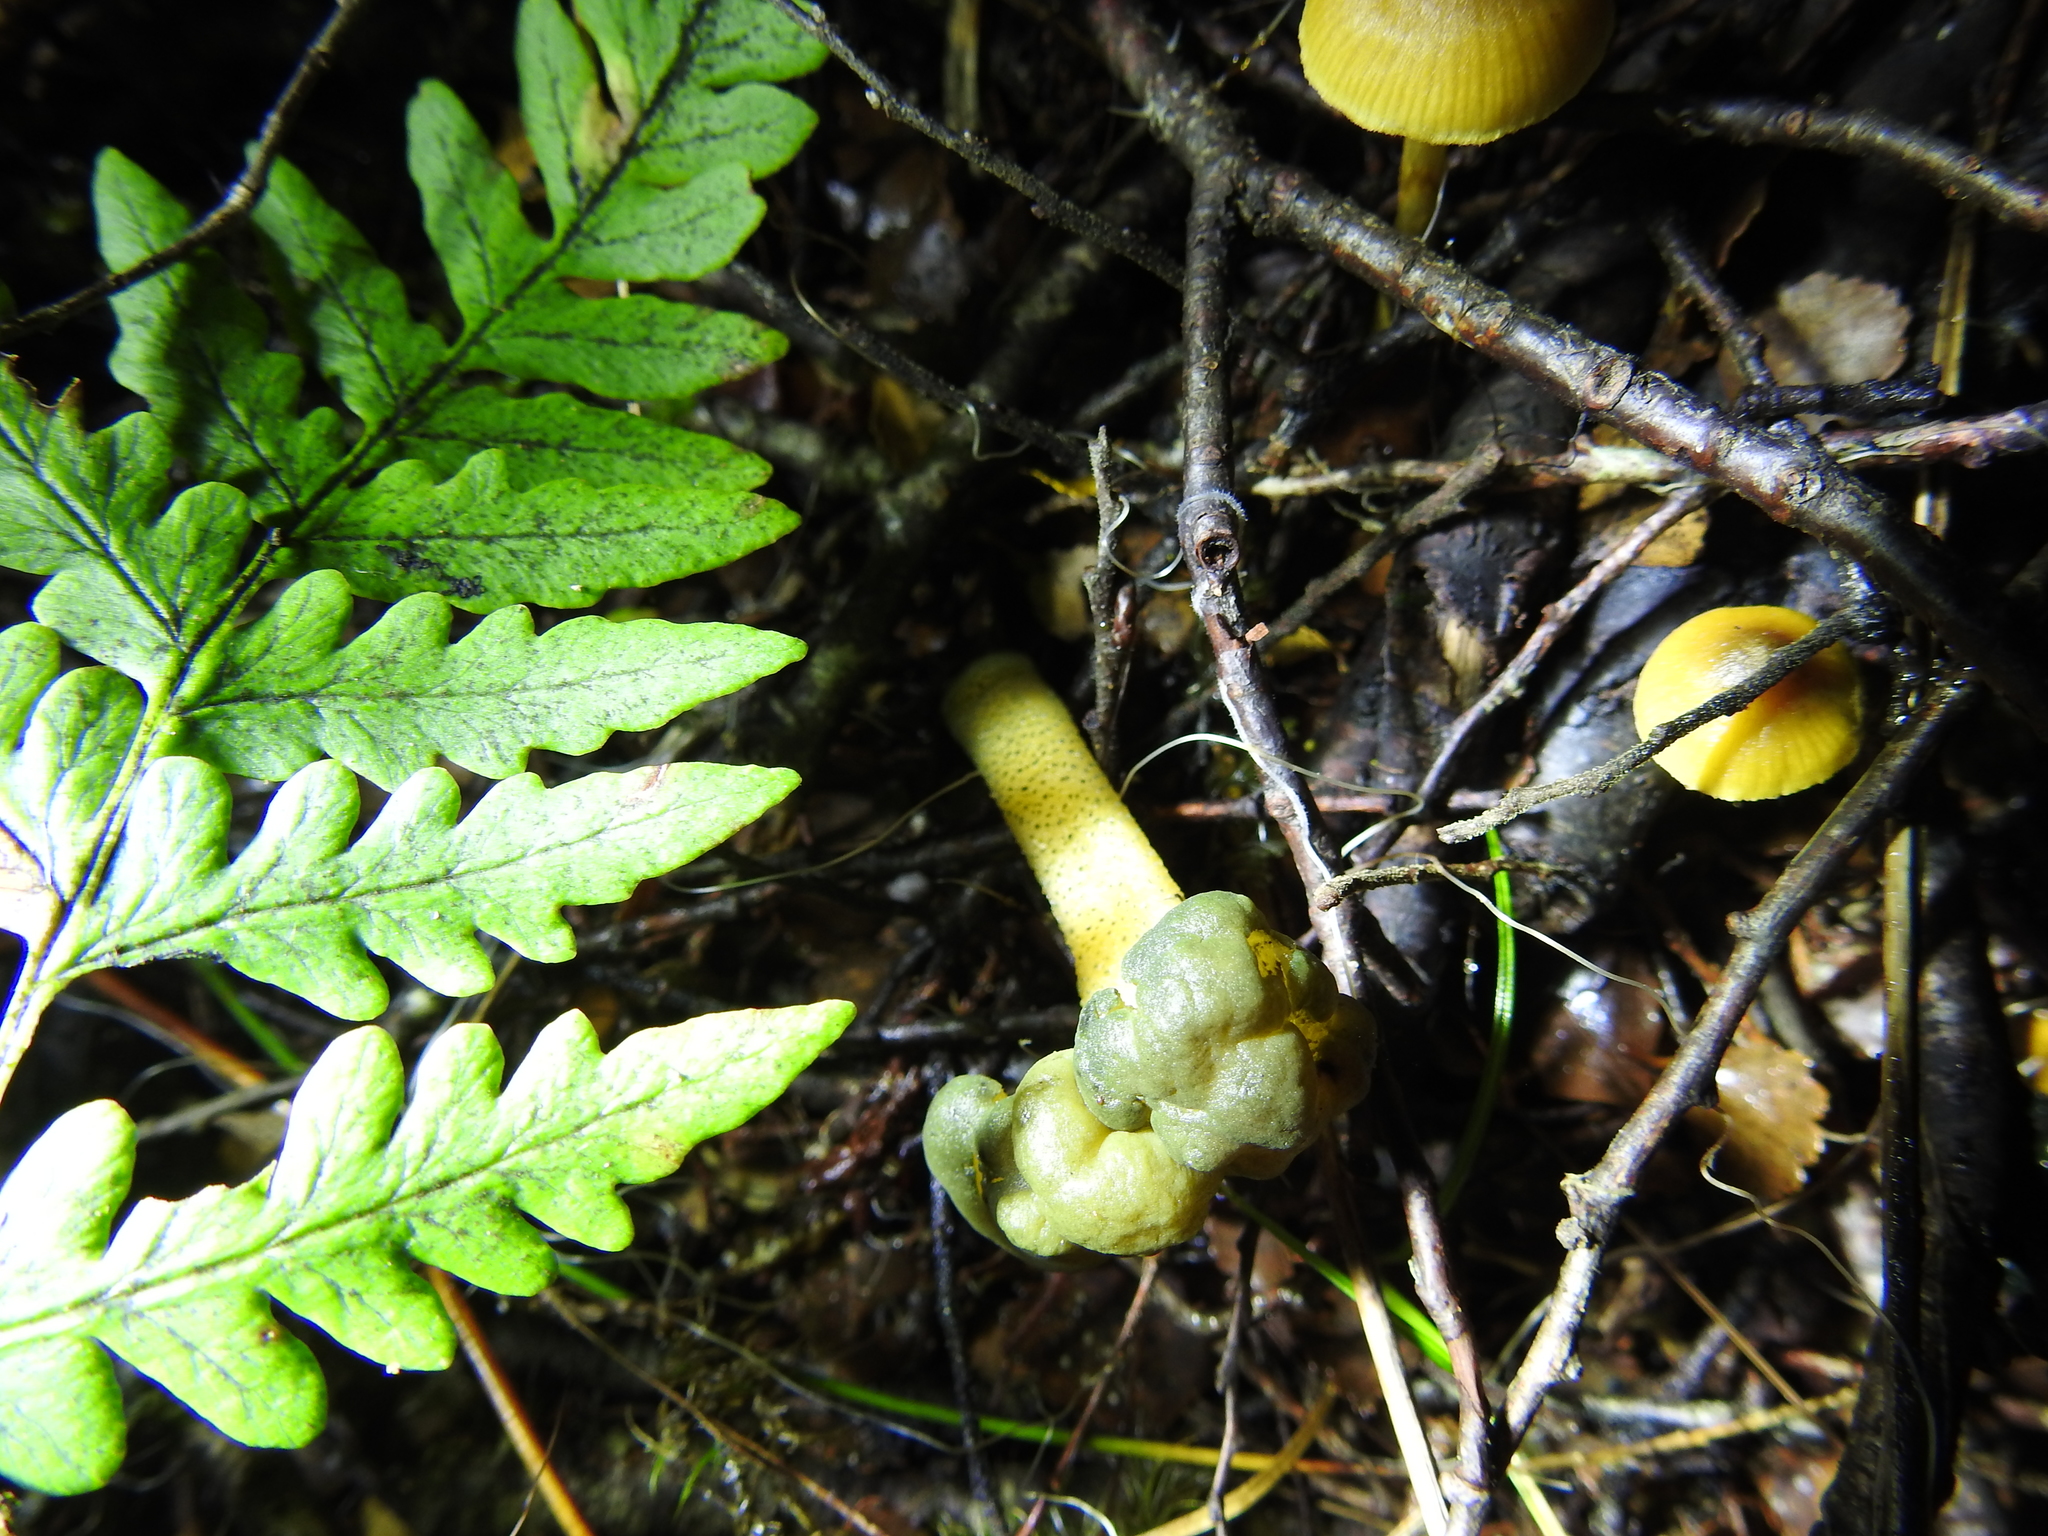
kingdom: Fungi
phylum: Ascomycota
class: Leotiomycetes
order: Leotiales
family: Leotiaceae
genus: Leotia
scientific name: Leotia lubrica
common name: Jellybaby
